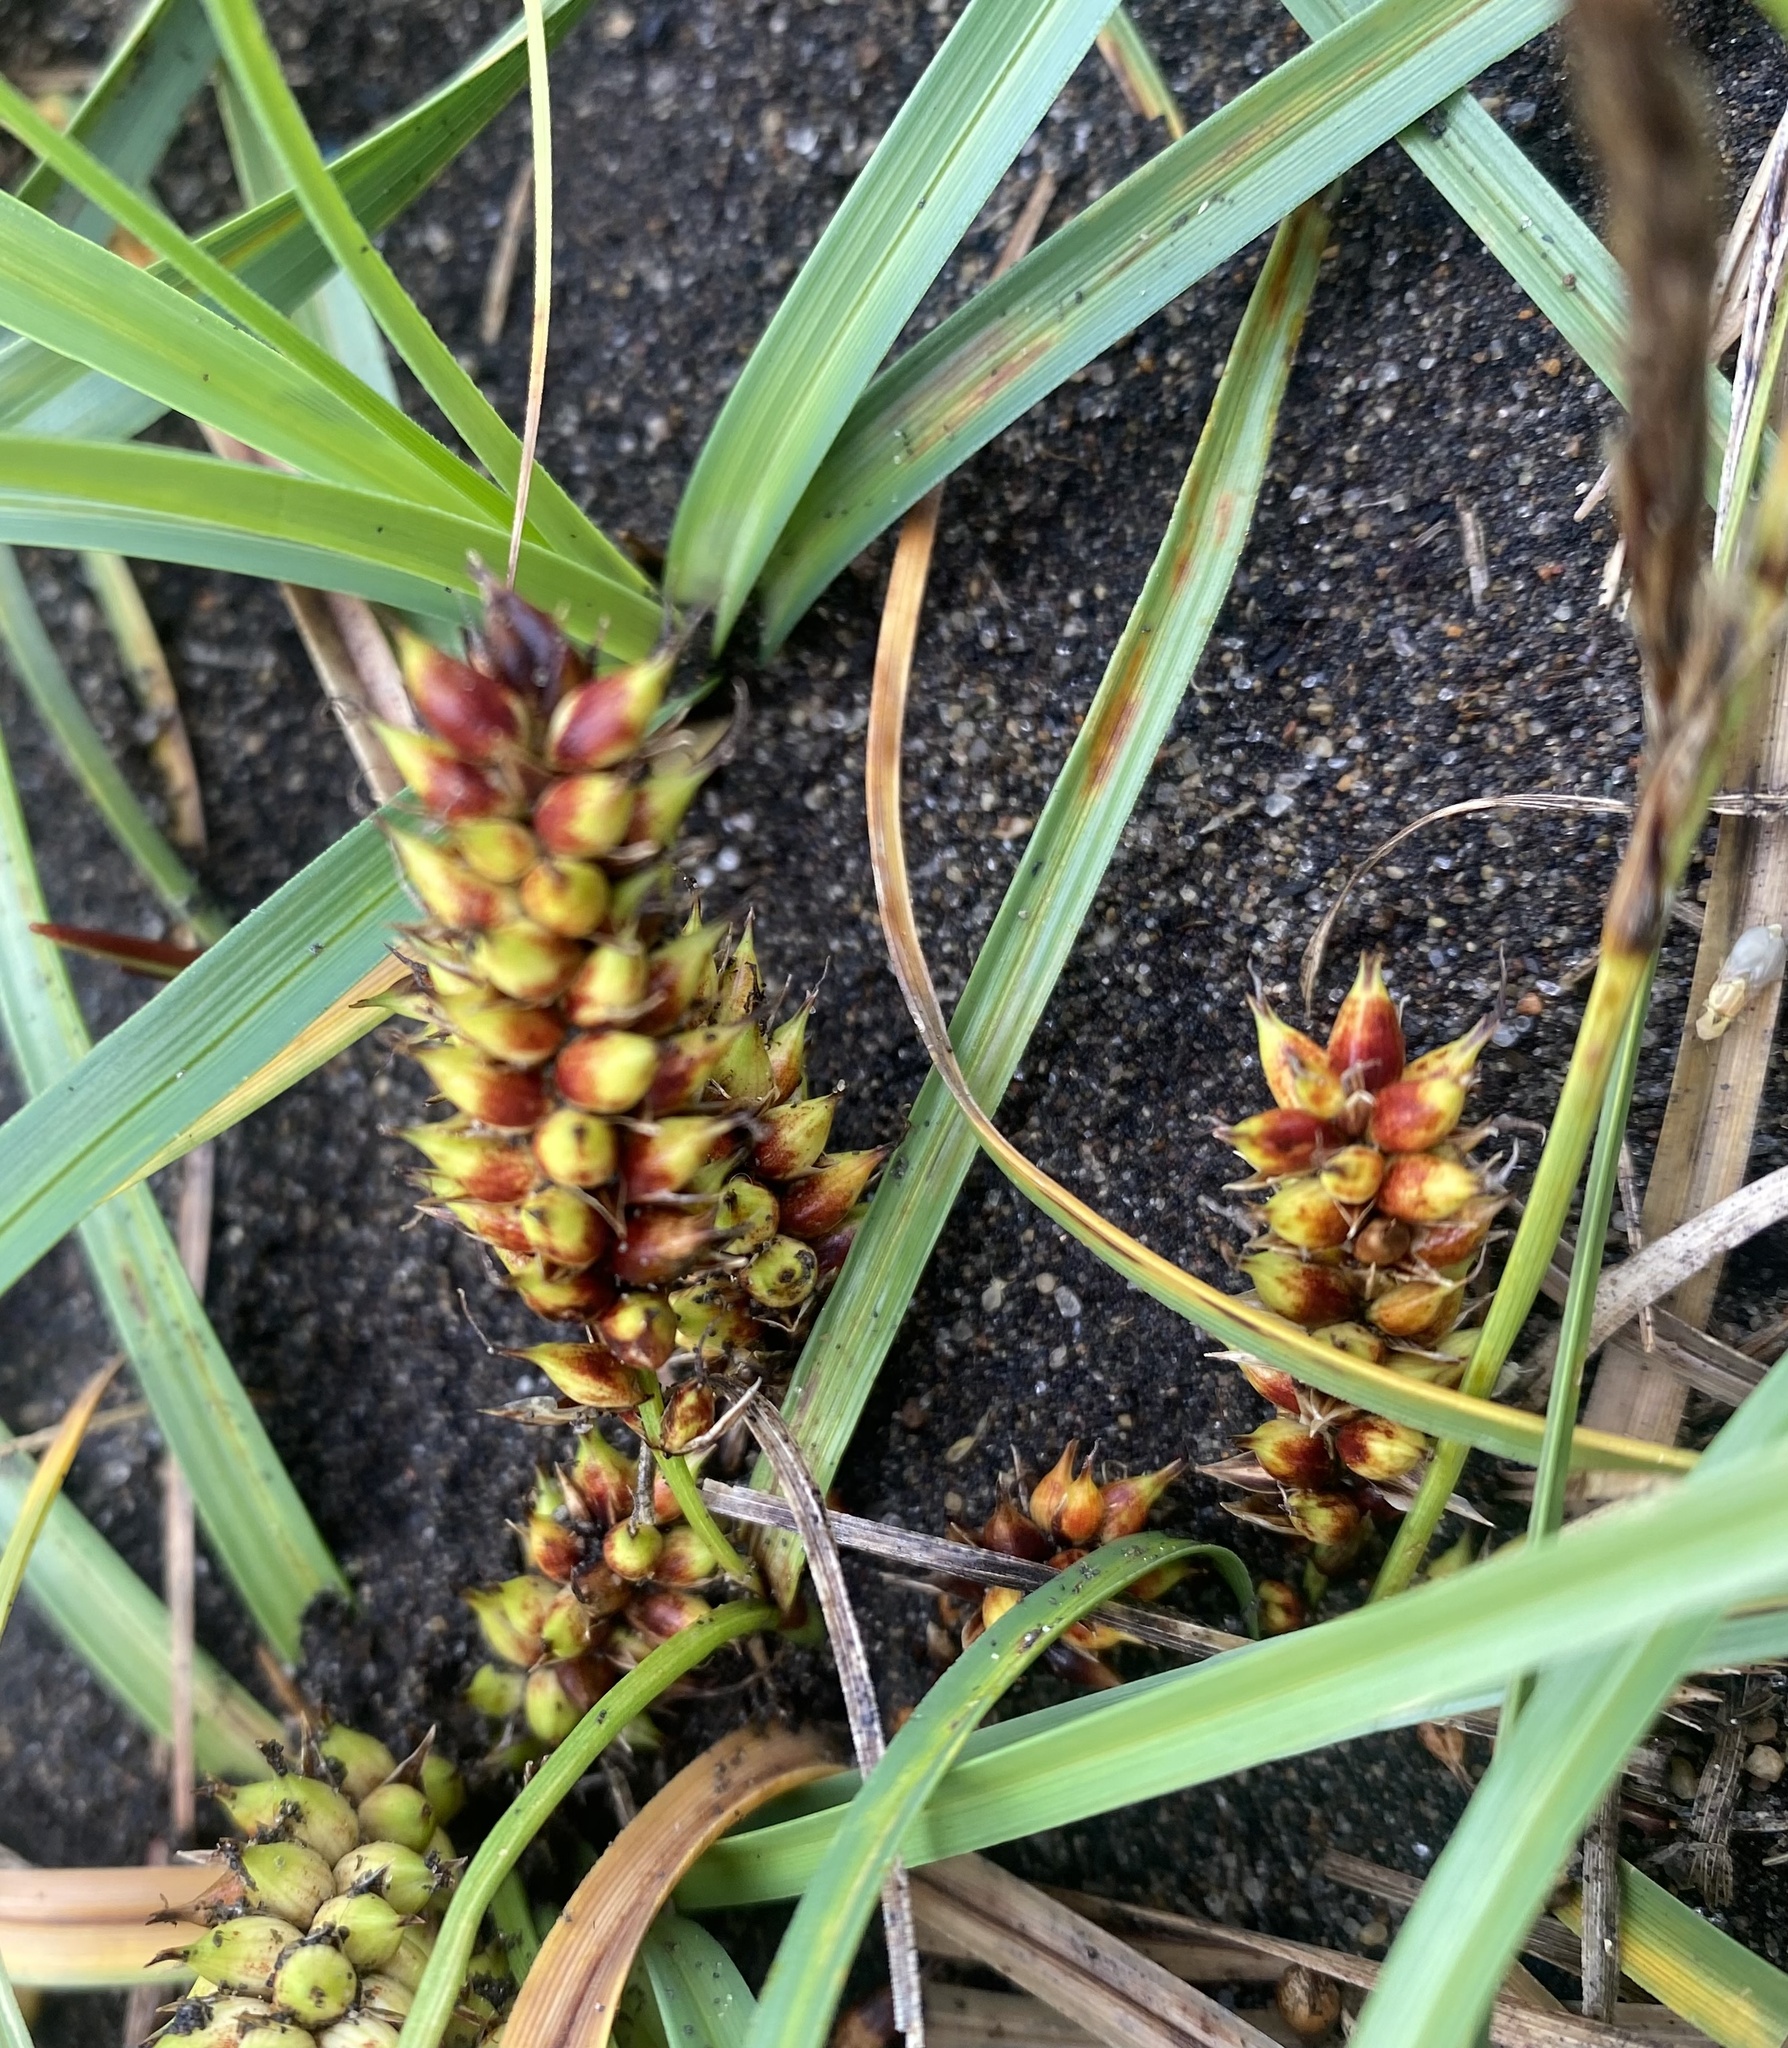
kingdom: Plantae
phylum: Tracheophyta
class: Liliopsida
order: Poales
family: Cyperaceae
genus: Carex
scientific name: Carex macrocephala
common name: Large-head sedge
